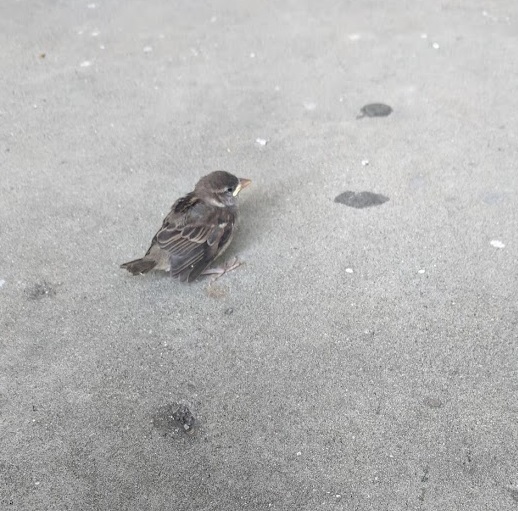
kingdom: Animalia
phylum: Chordata
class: Aves
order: Passeriformes
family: Passeridae
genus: Passer
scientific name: Passer domesticus
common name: House sparrow
